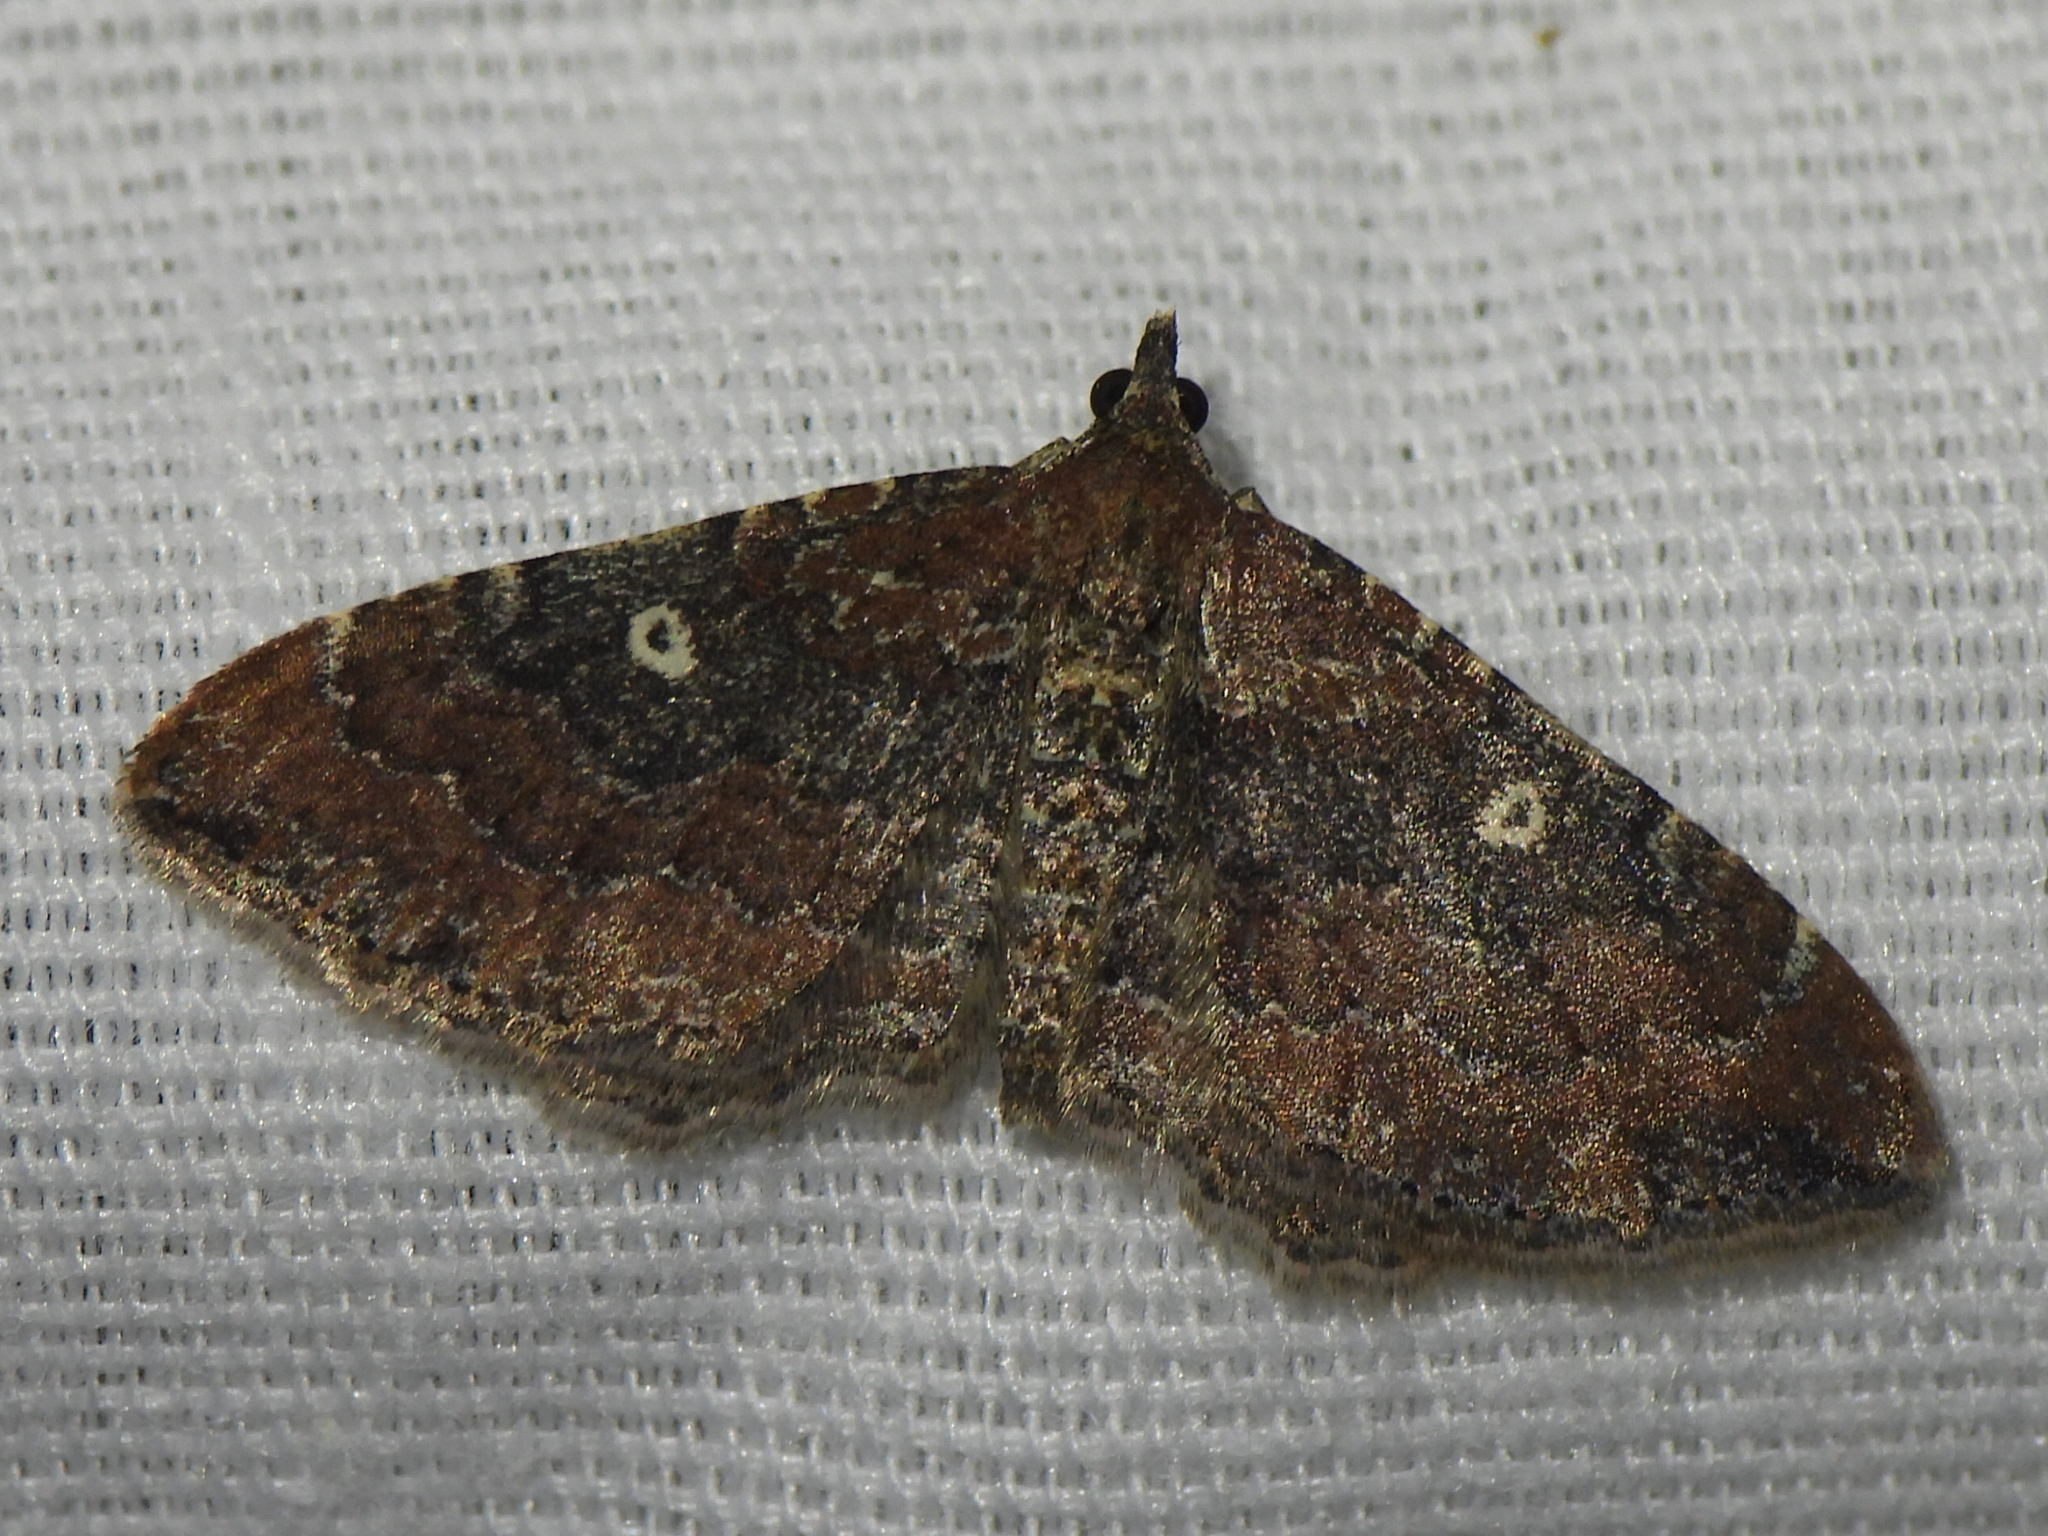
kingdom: Animalia
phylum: Arthropoda
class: Insecta
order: Lepidoptera
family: Geometridae
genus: Orthonama
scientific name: Orthonama obstipata
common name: The gem
